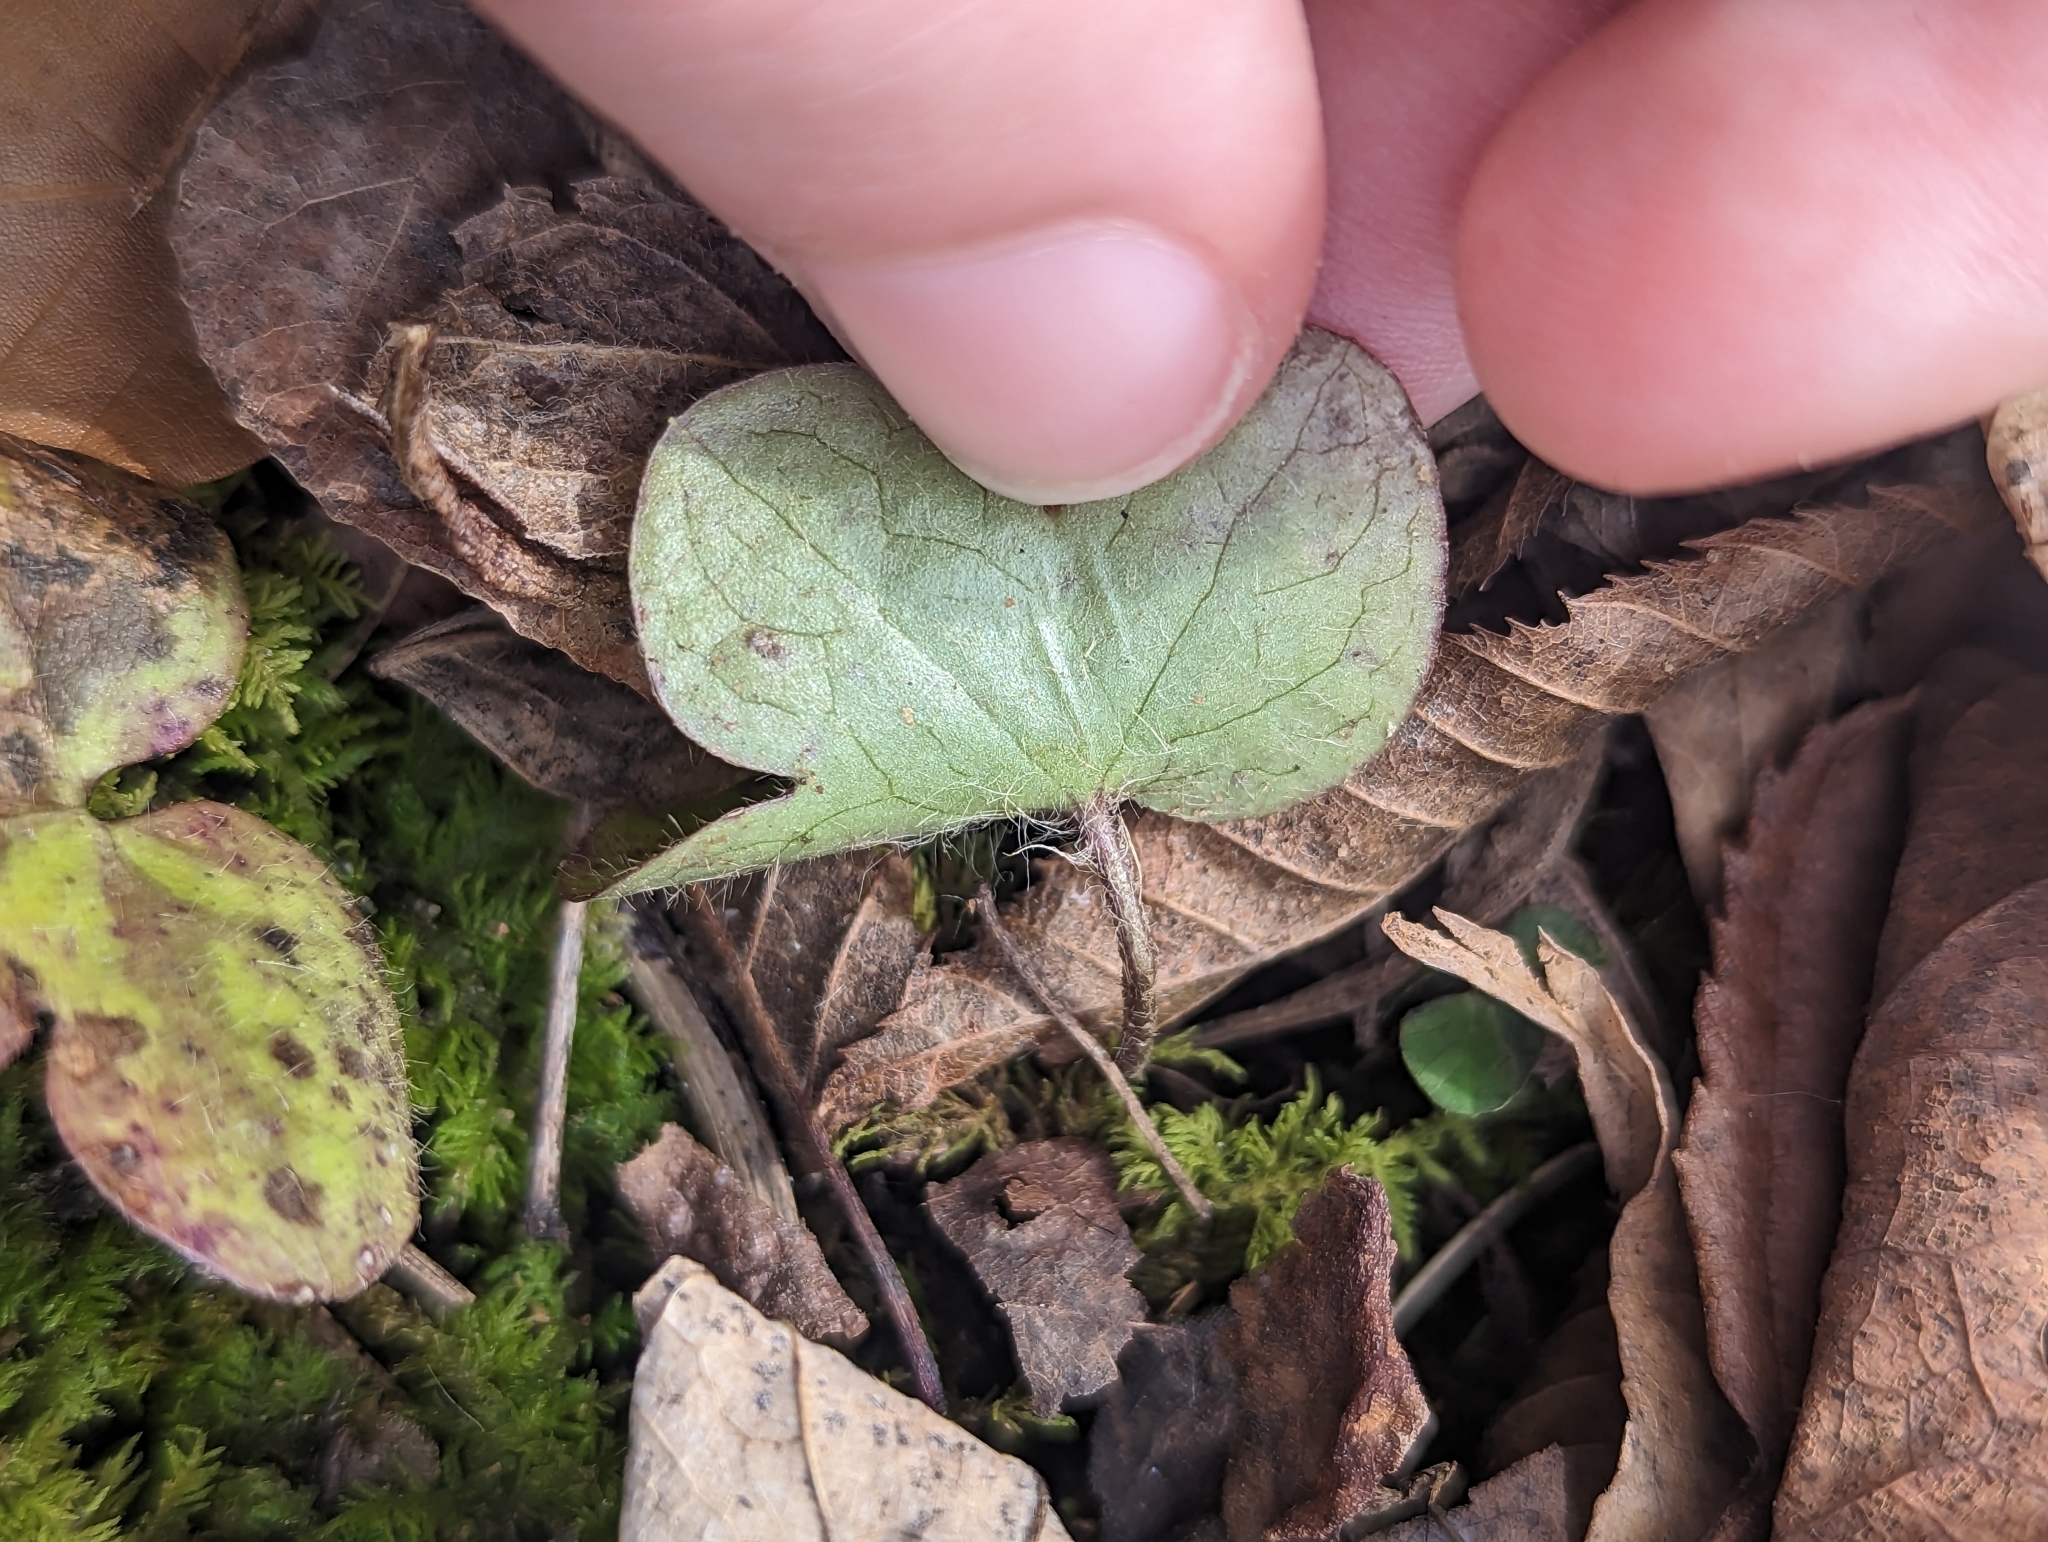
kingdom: Plantae
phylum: Tracheophyta
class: Magnoliopsida
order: Ranunculales
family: Ranunculaceae
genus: Hepatica
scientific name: Hepatica americana
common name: American hepatica
